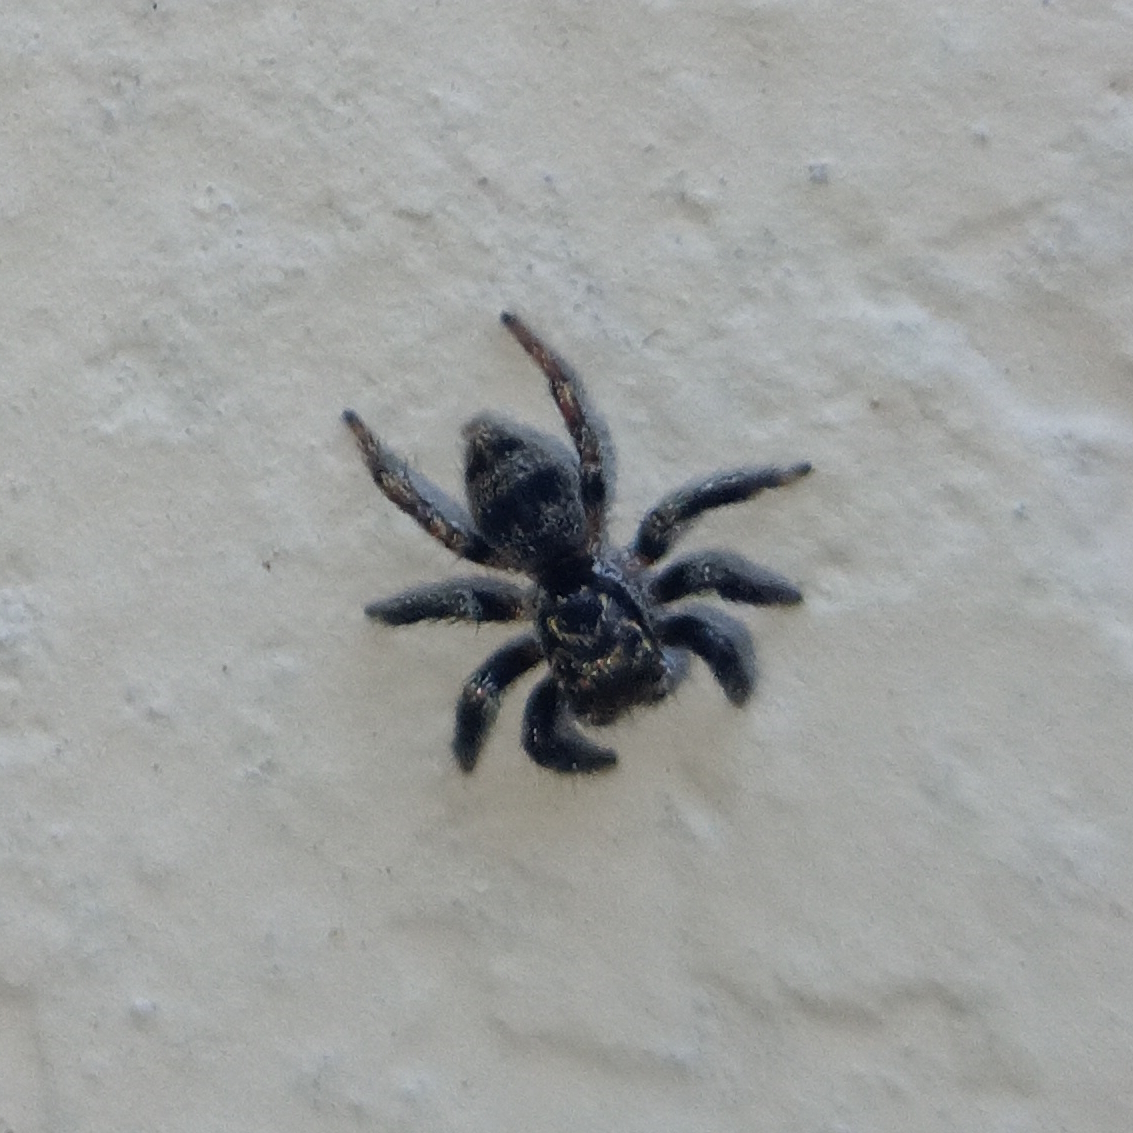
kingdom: Animalia
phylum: Arthropoda
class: Arachnida
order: Araneae
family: Salticidae
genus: Corythalia
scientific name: Corythalia conferta
